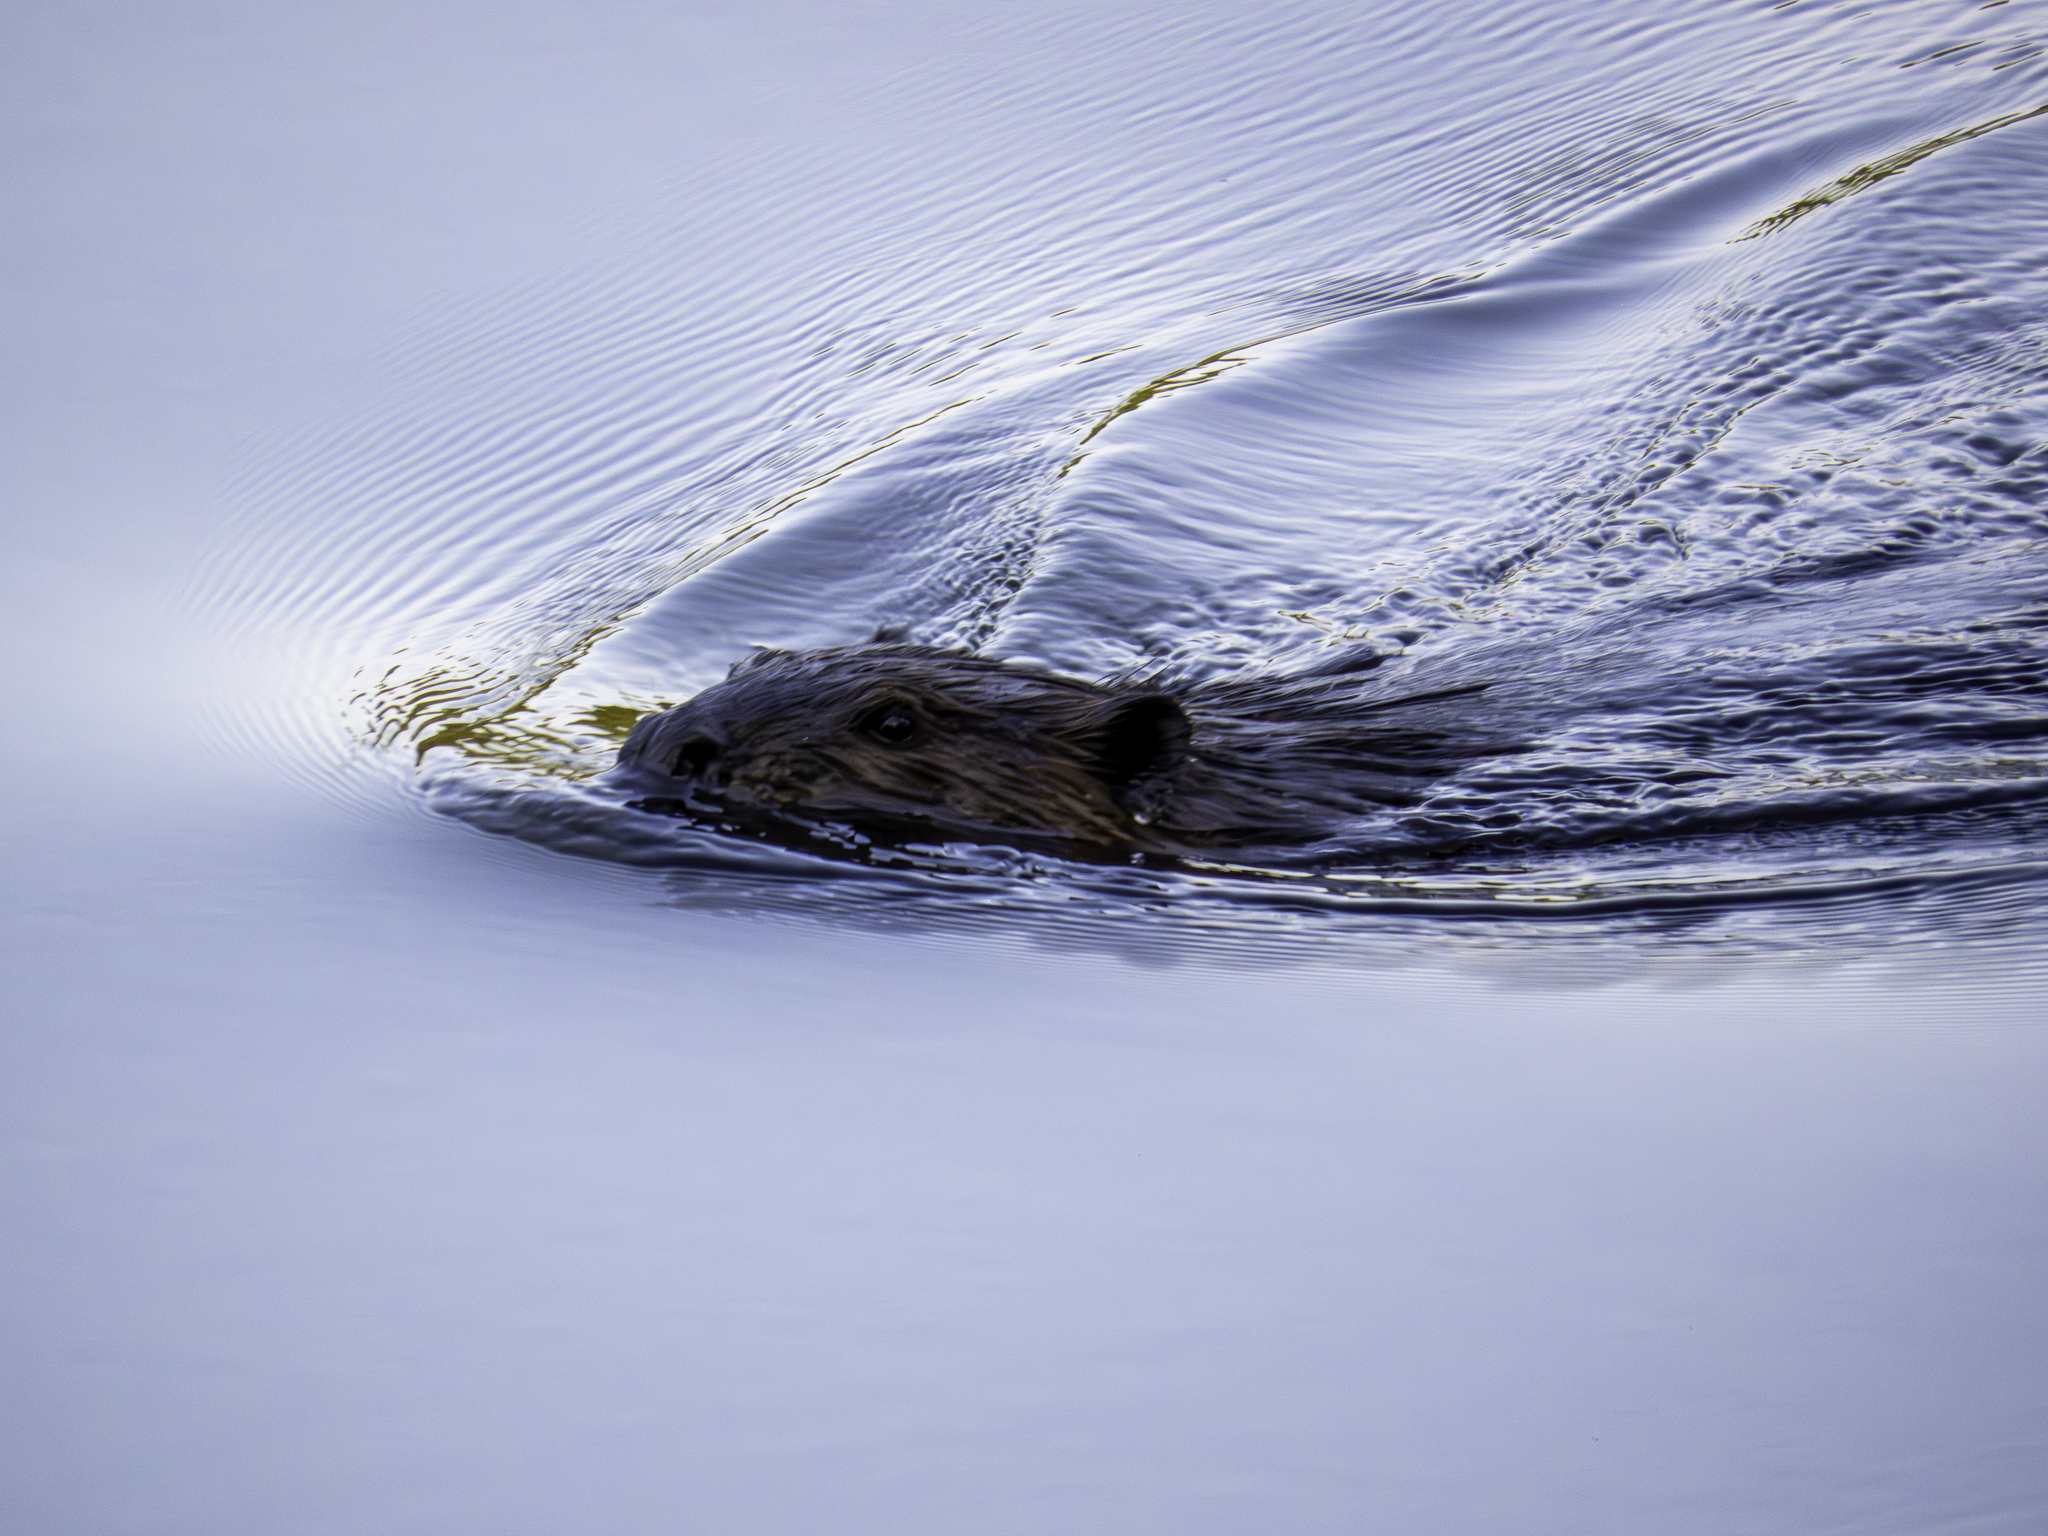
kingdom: Animalia
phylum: Chordata
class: Mammalia
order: Rodentia
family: Castoridae
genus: Castor
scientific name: Castor canadensis
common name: American beaver
